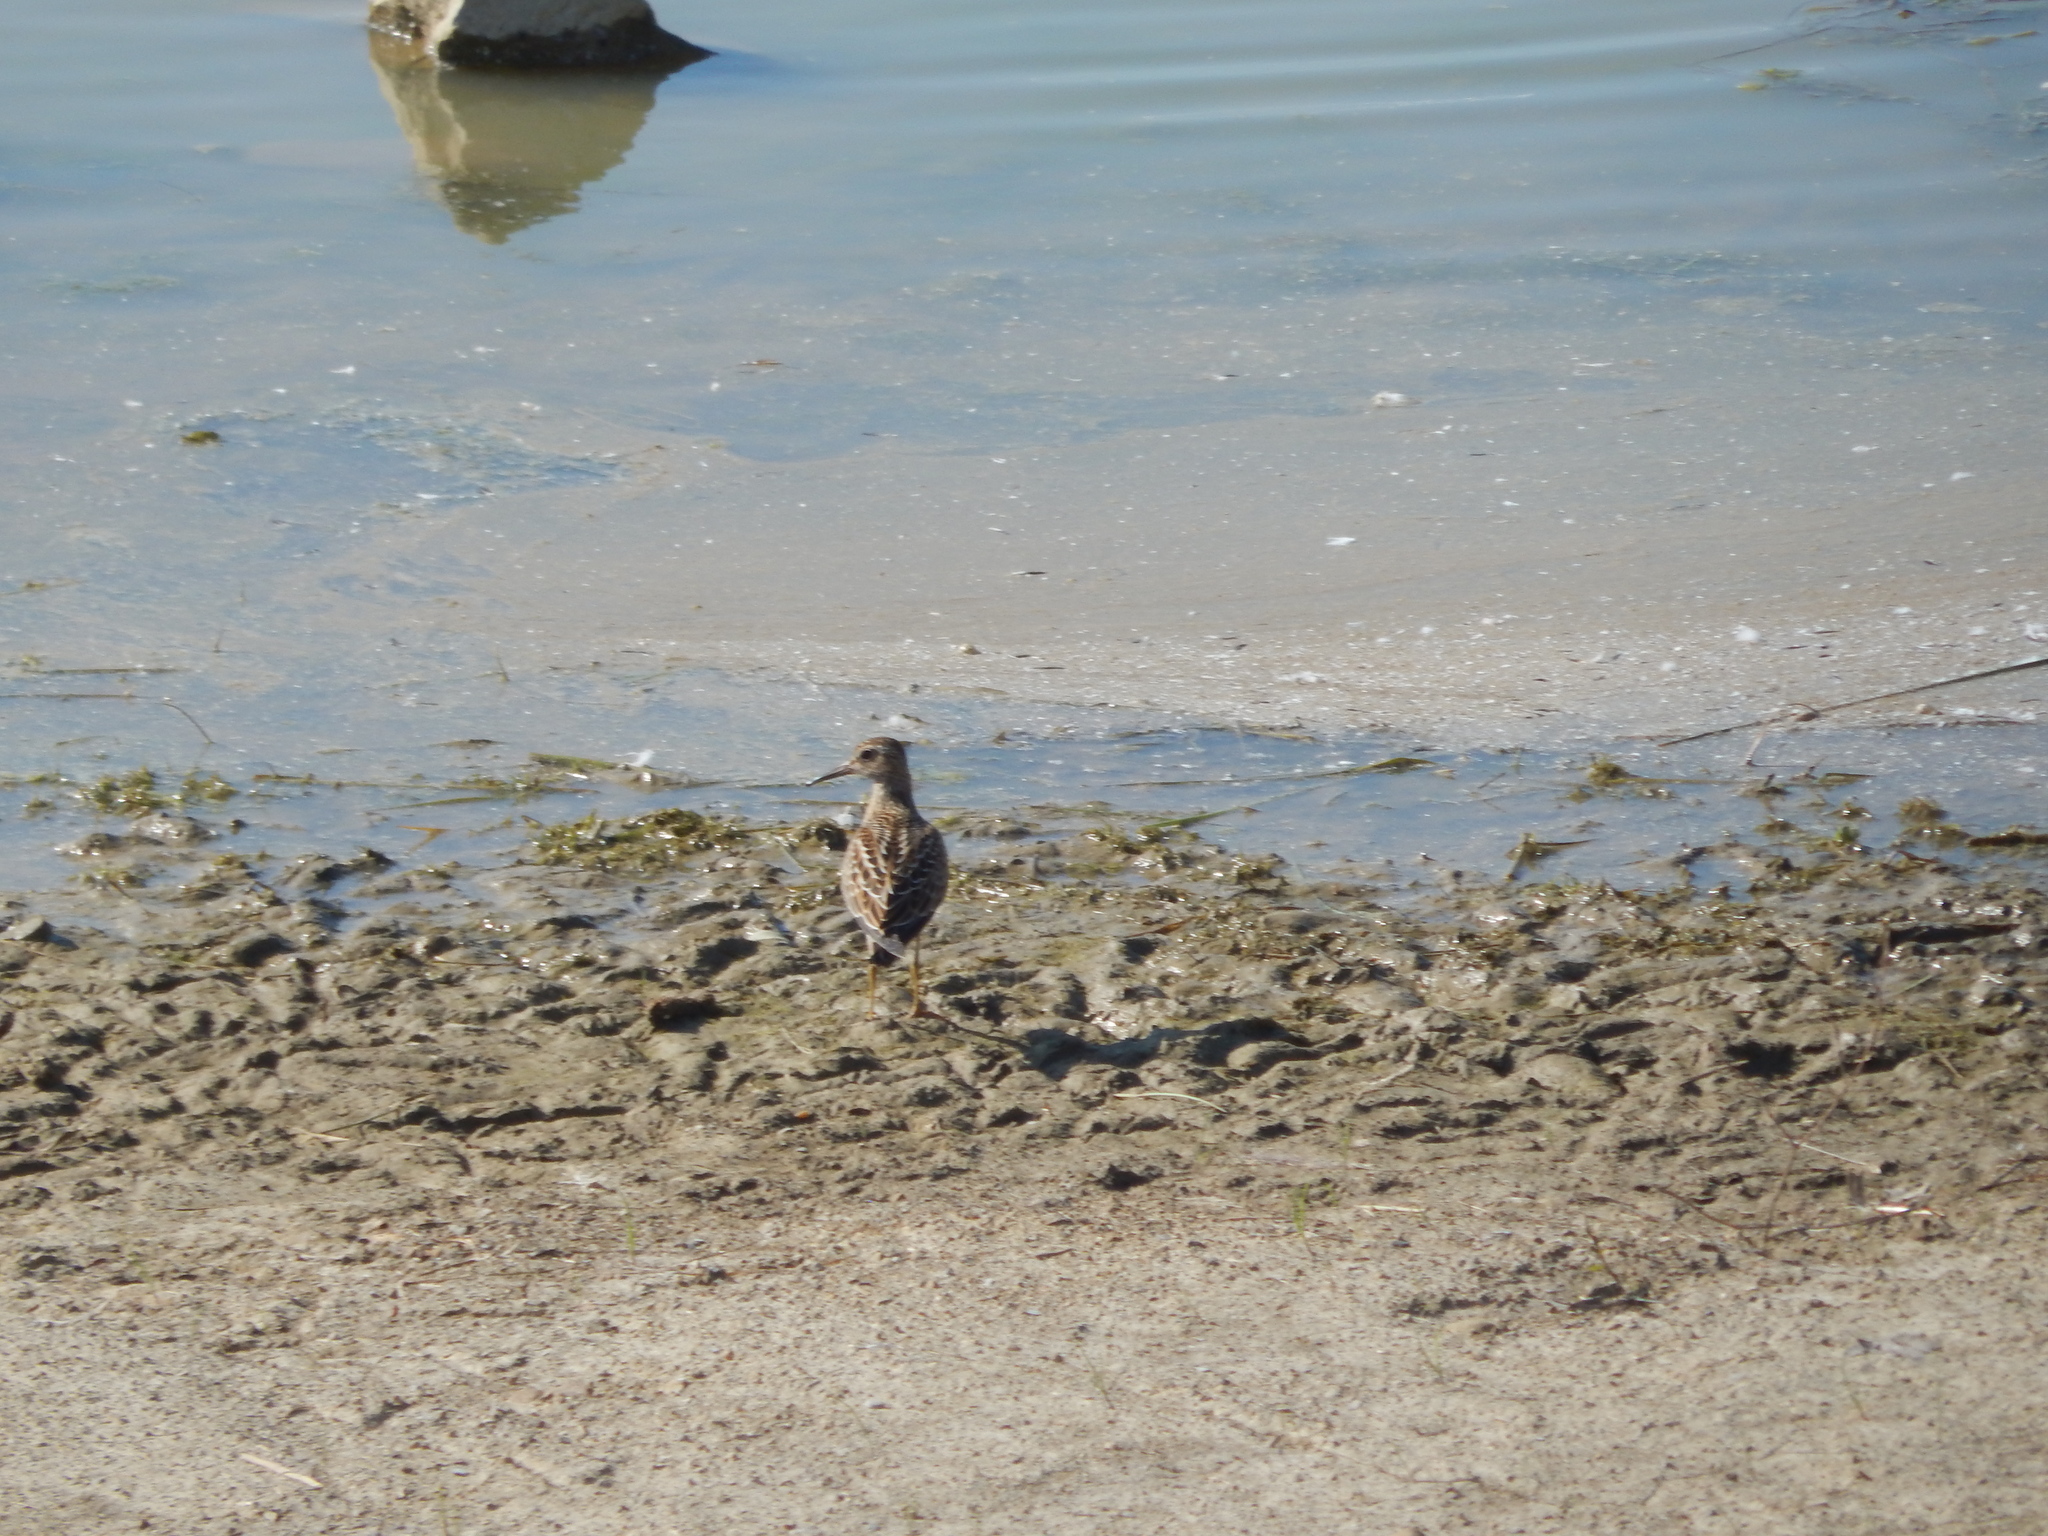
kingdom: Animalia
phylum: Chordata
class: Aves
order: Charadriiformes
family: Scolopacidae
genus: Calidris
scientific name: Calidris melanotos
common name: Pectoral sandpiper
